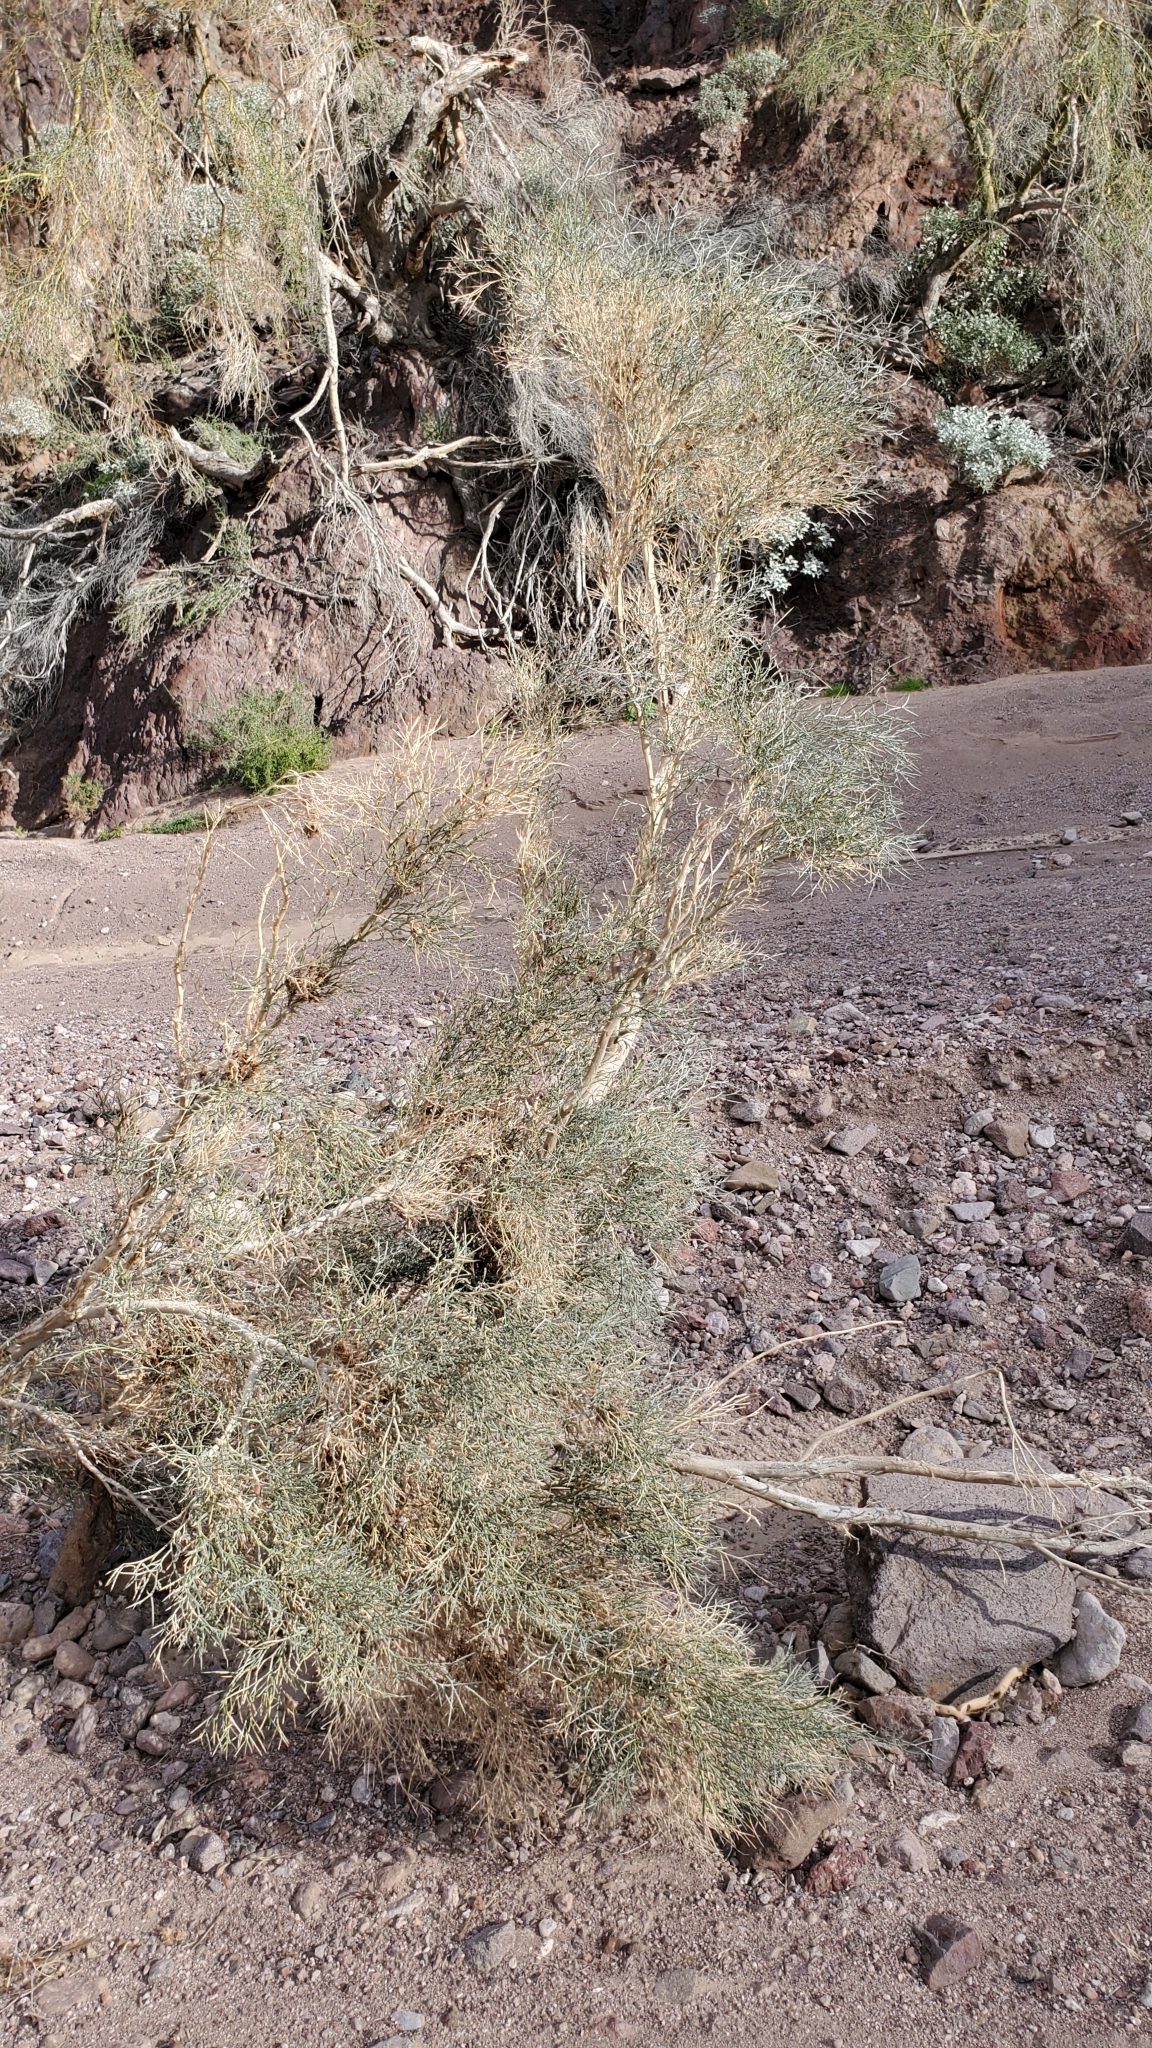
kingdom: Plantae
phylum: Tracheophyta
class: Magnoliopsida
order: Fabales
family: Fabaceae
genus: Psorothamnus
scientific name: Psorothamnus spinosus
